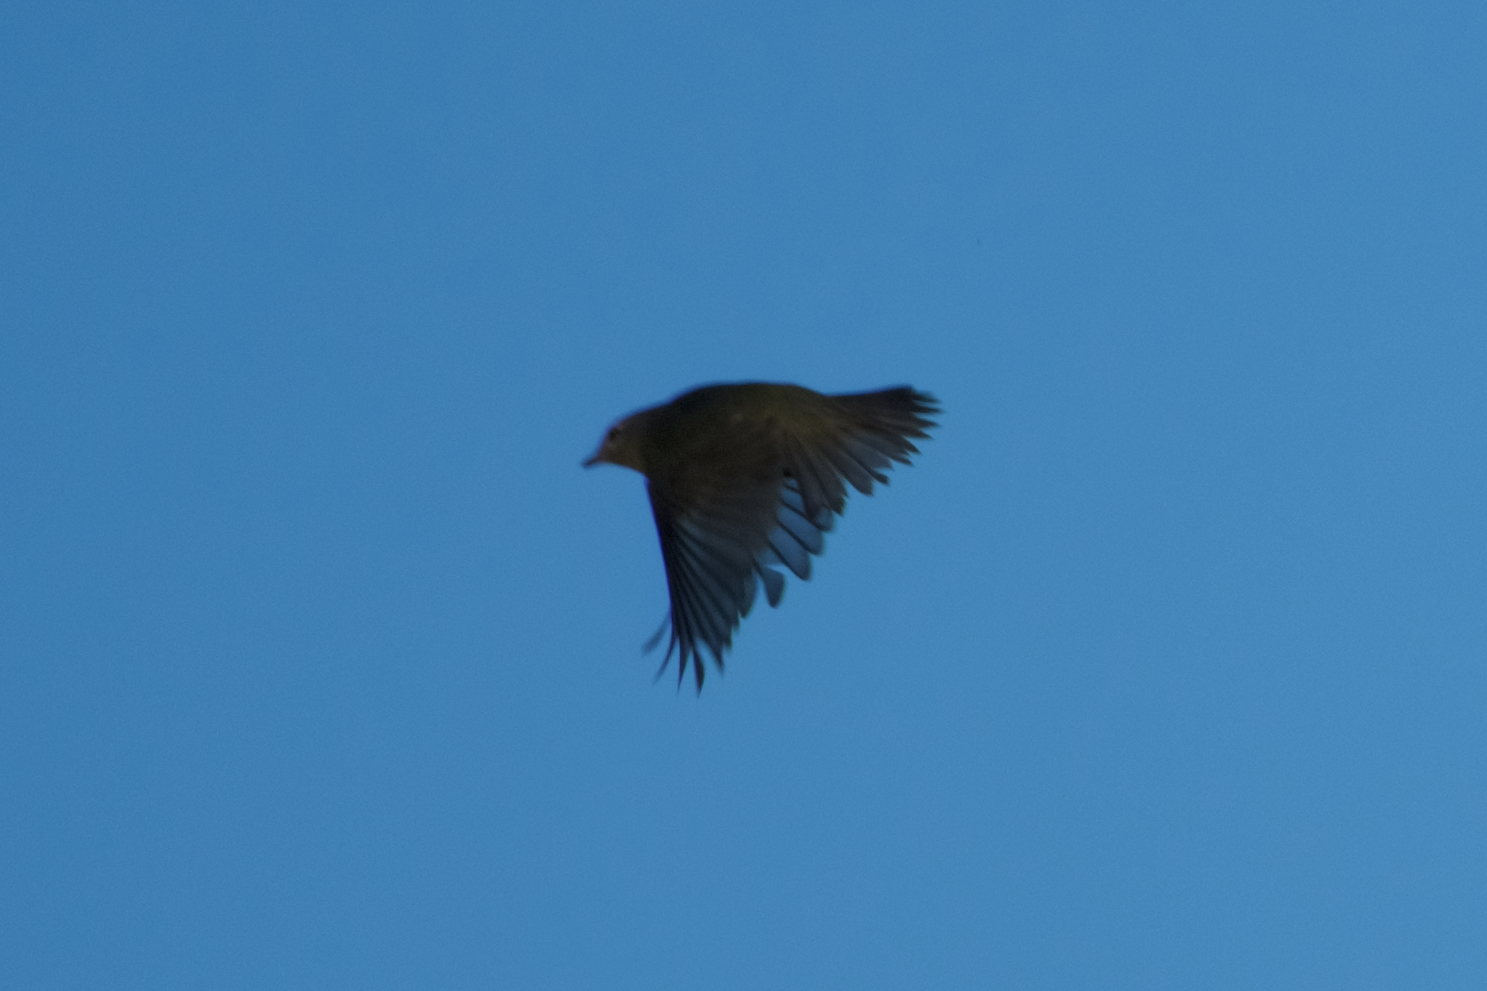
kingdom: Animalia
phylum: Chordata
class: Aves
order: Passeriformes
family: Vireonidae
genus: Vireo
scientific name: Vireo gilvus
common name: Warbling vireo
